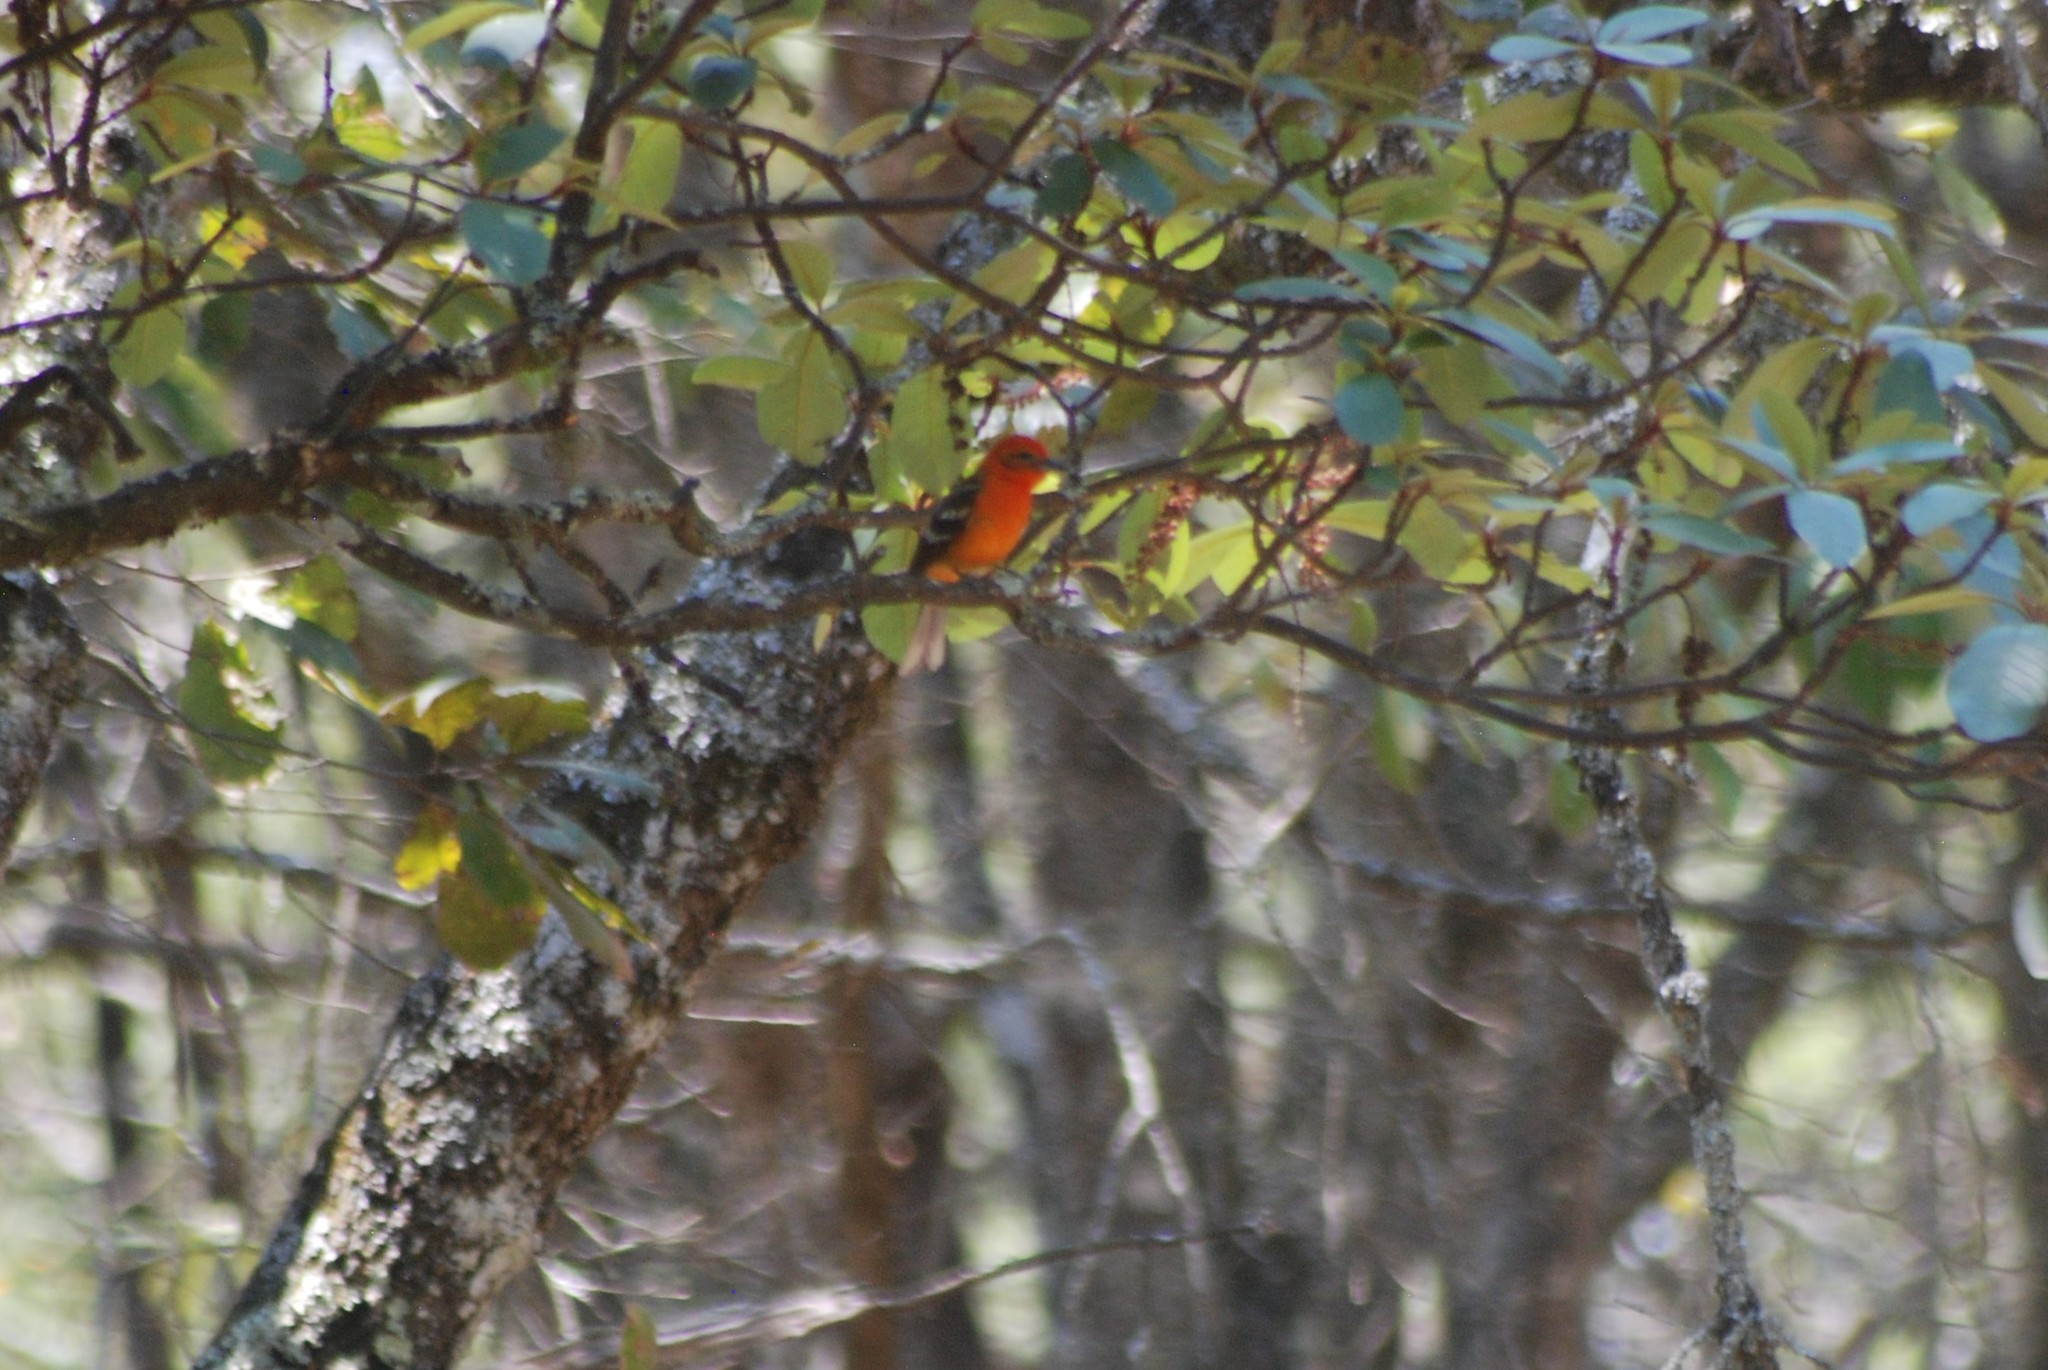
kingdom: Animalia
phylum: Chordata
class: Aves
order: Passeriformes
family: Cardinalidae
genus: Piranga
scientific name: Piranga bidentata
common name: Flame-colored tanager
